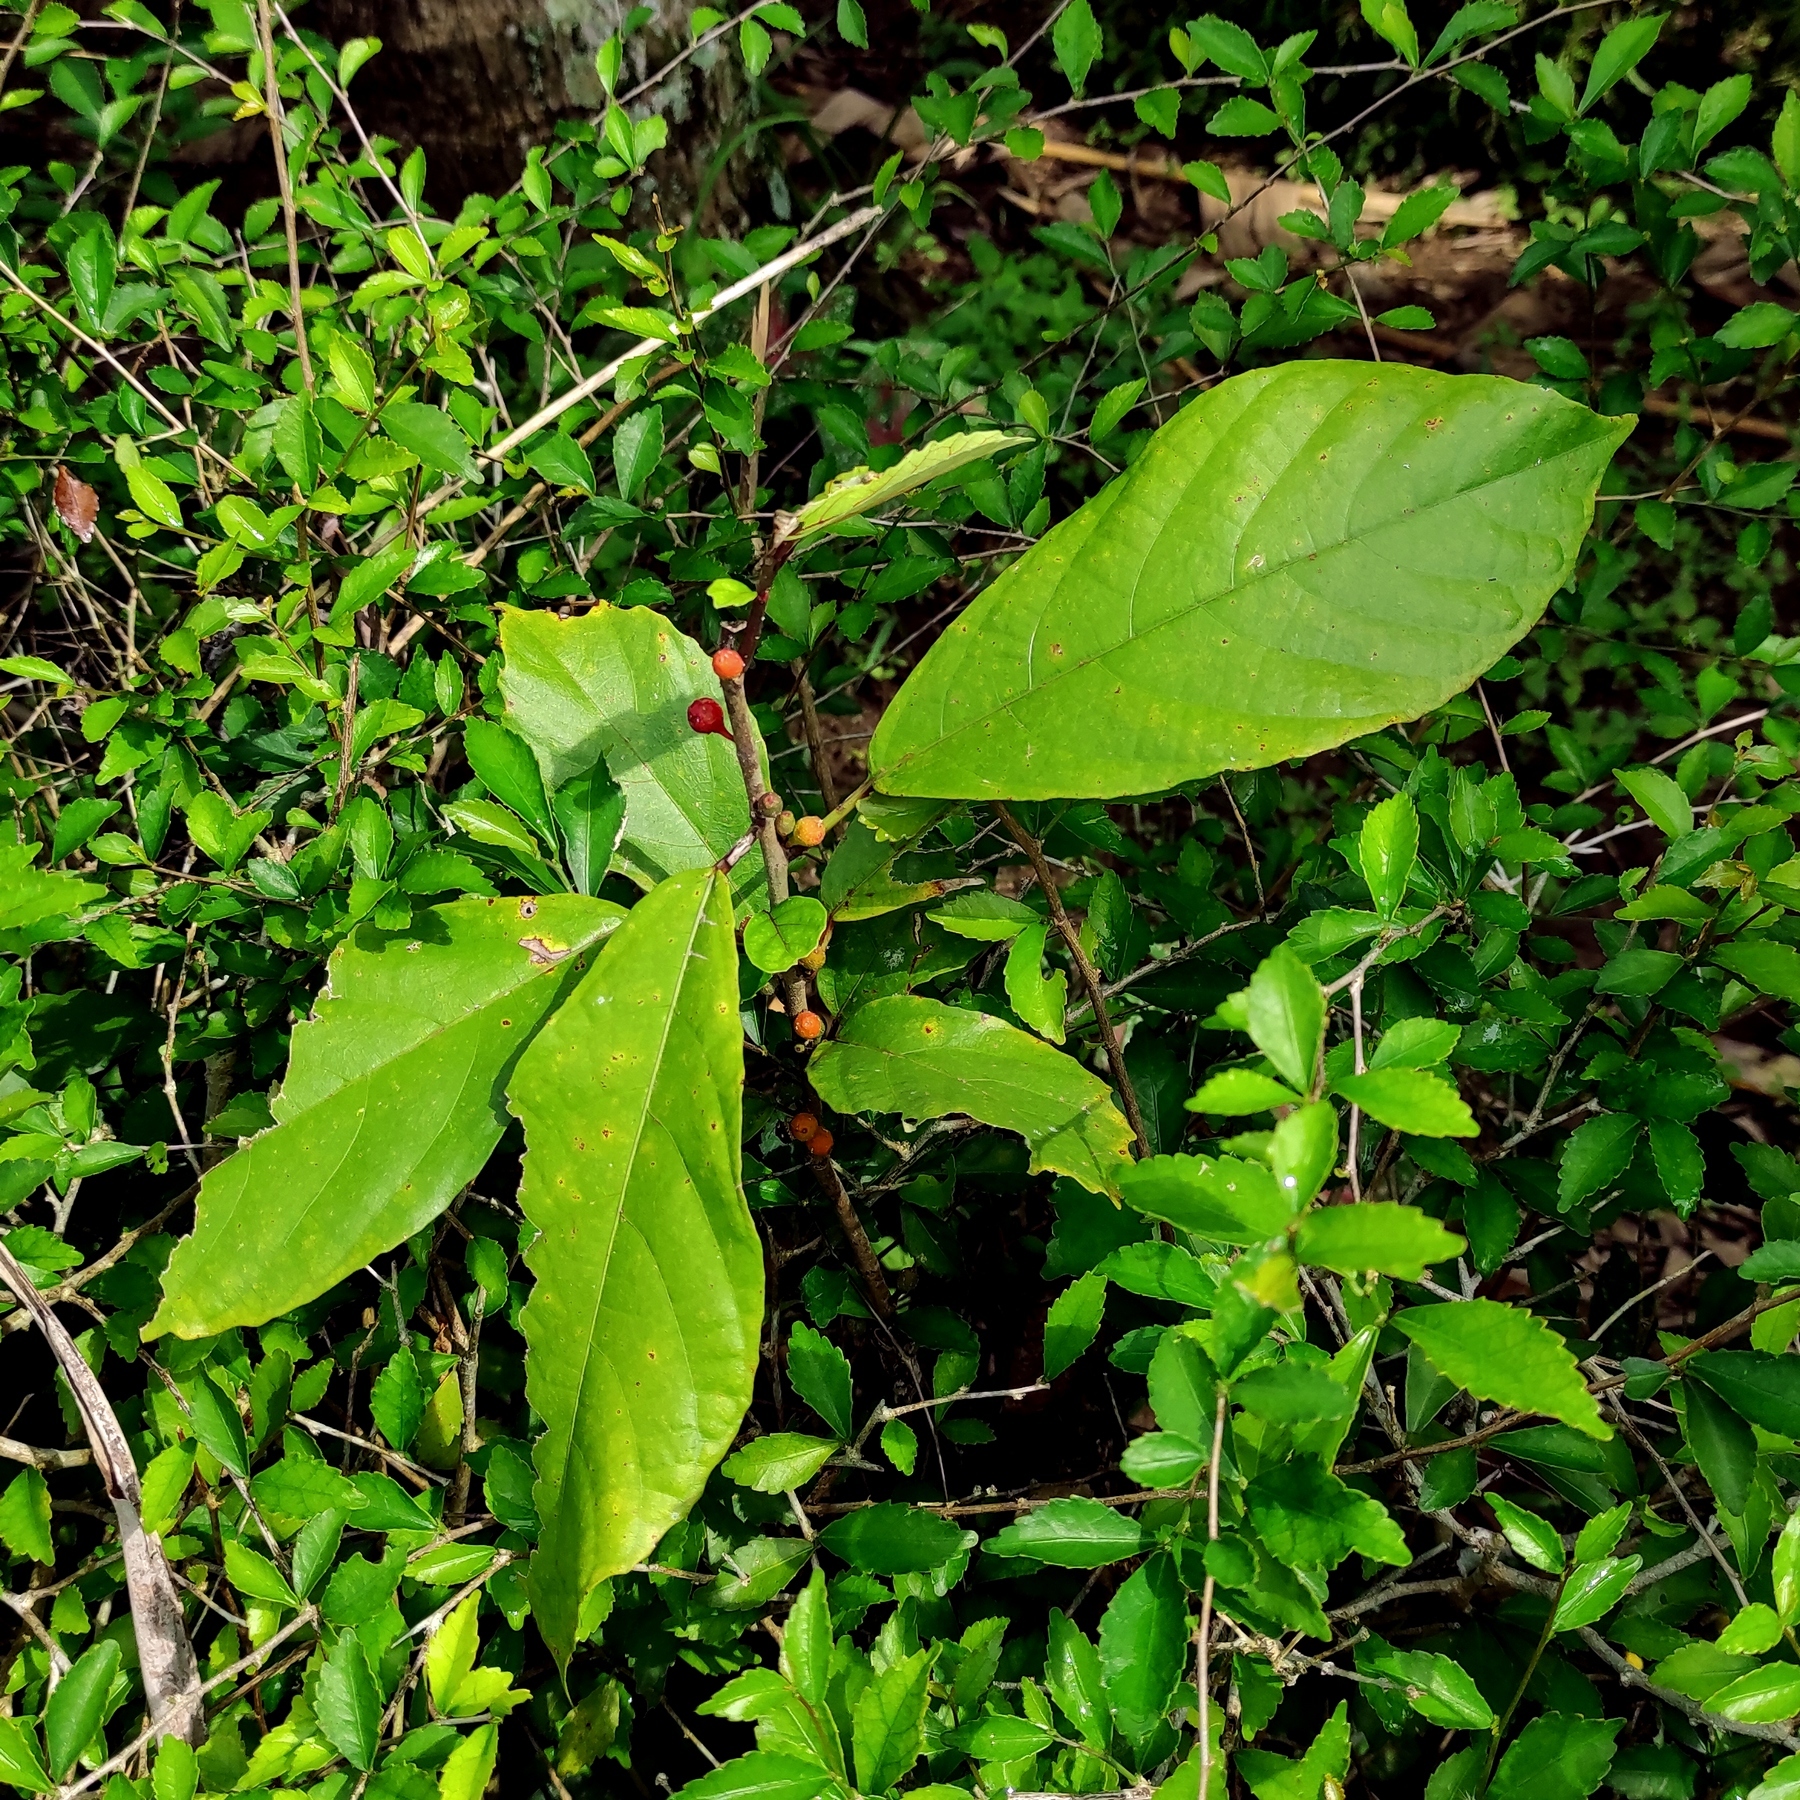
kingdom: Plantae
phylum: Tracheophyta
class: Magnoliopsida
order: Rosales
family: Moraceae
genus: Ficus
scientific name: Ficus montana
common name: Oak-leaf fig
